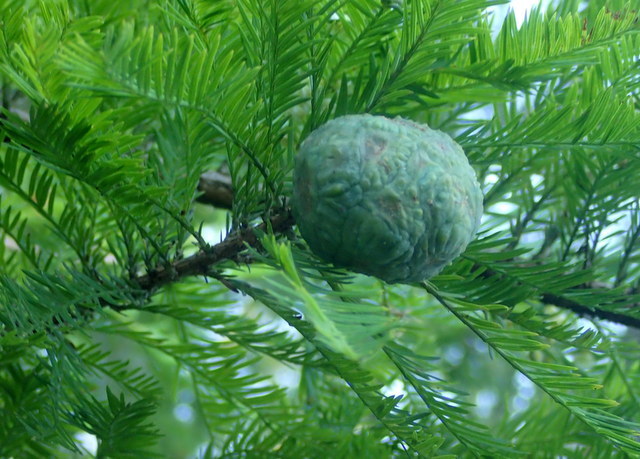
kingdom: Plantae
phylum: Tracheophyta
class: Pinopsida
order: Pinales
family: Cupressaceae
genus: Taxodium
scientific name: Taxodium distichum
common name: Bald cypress
